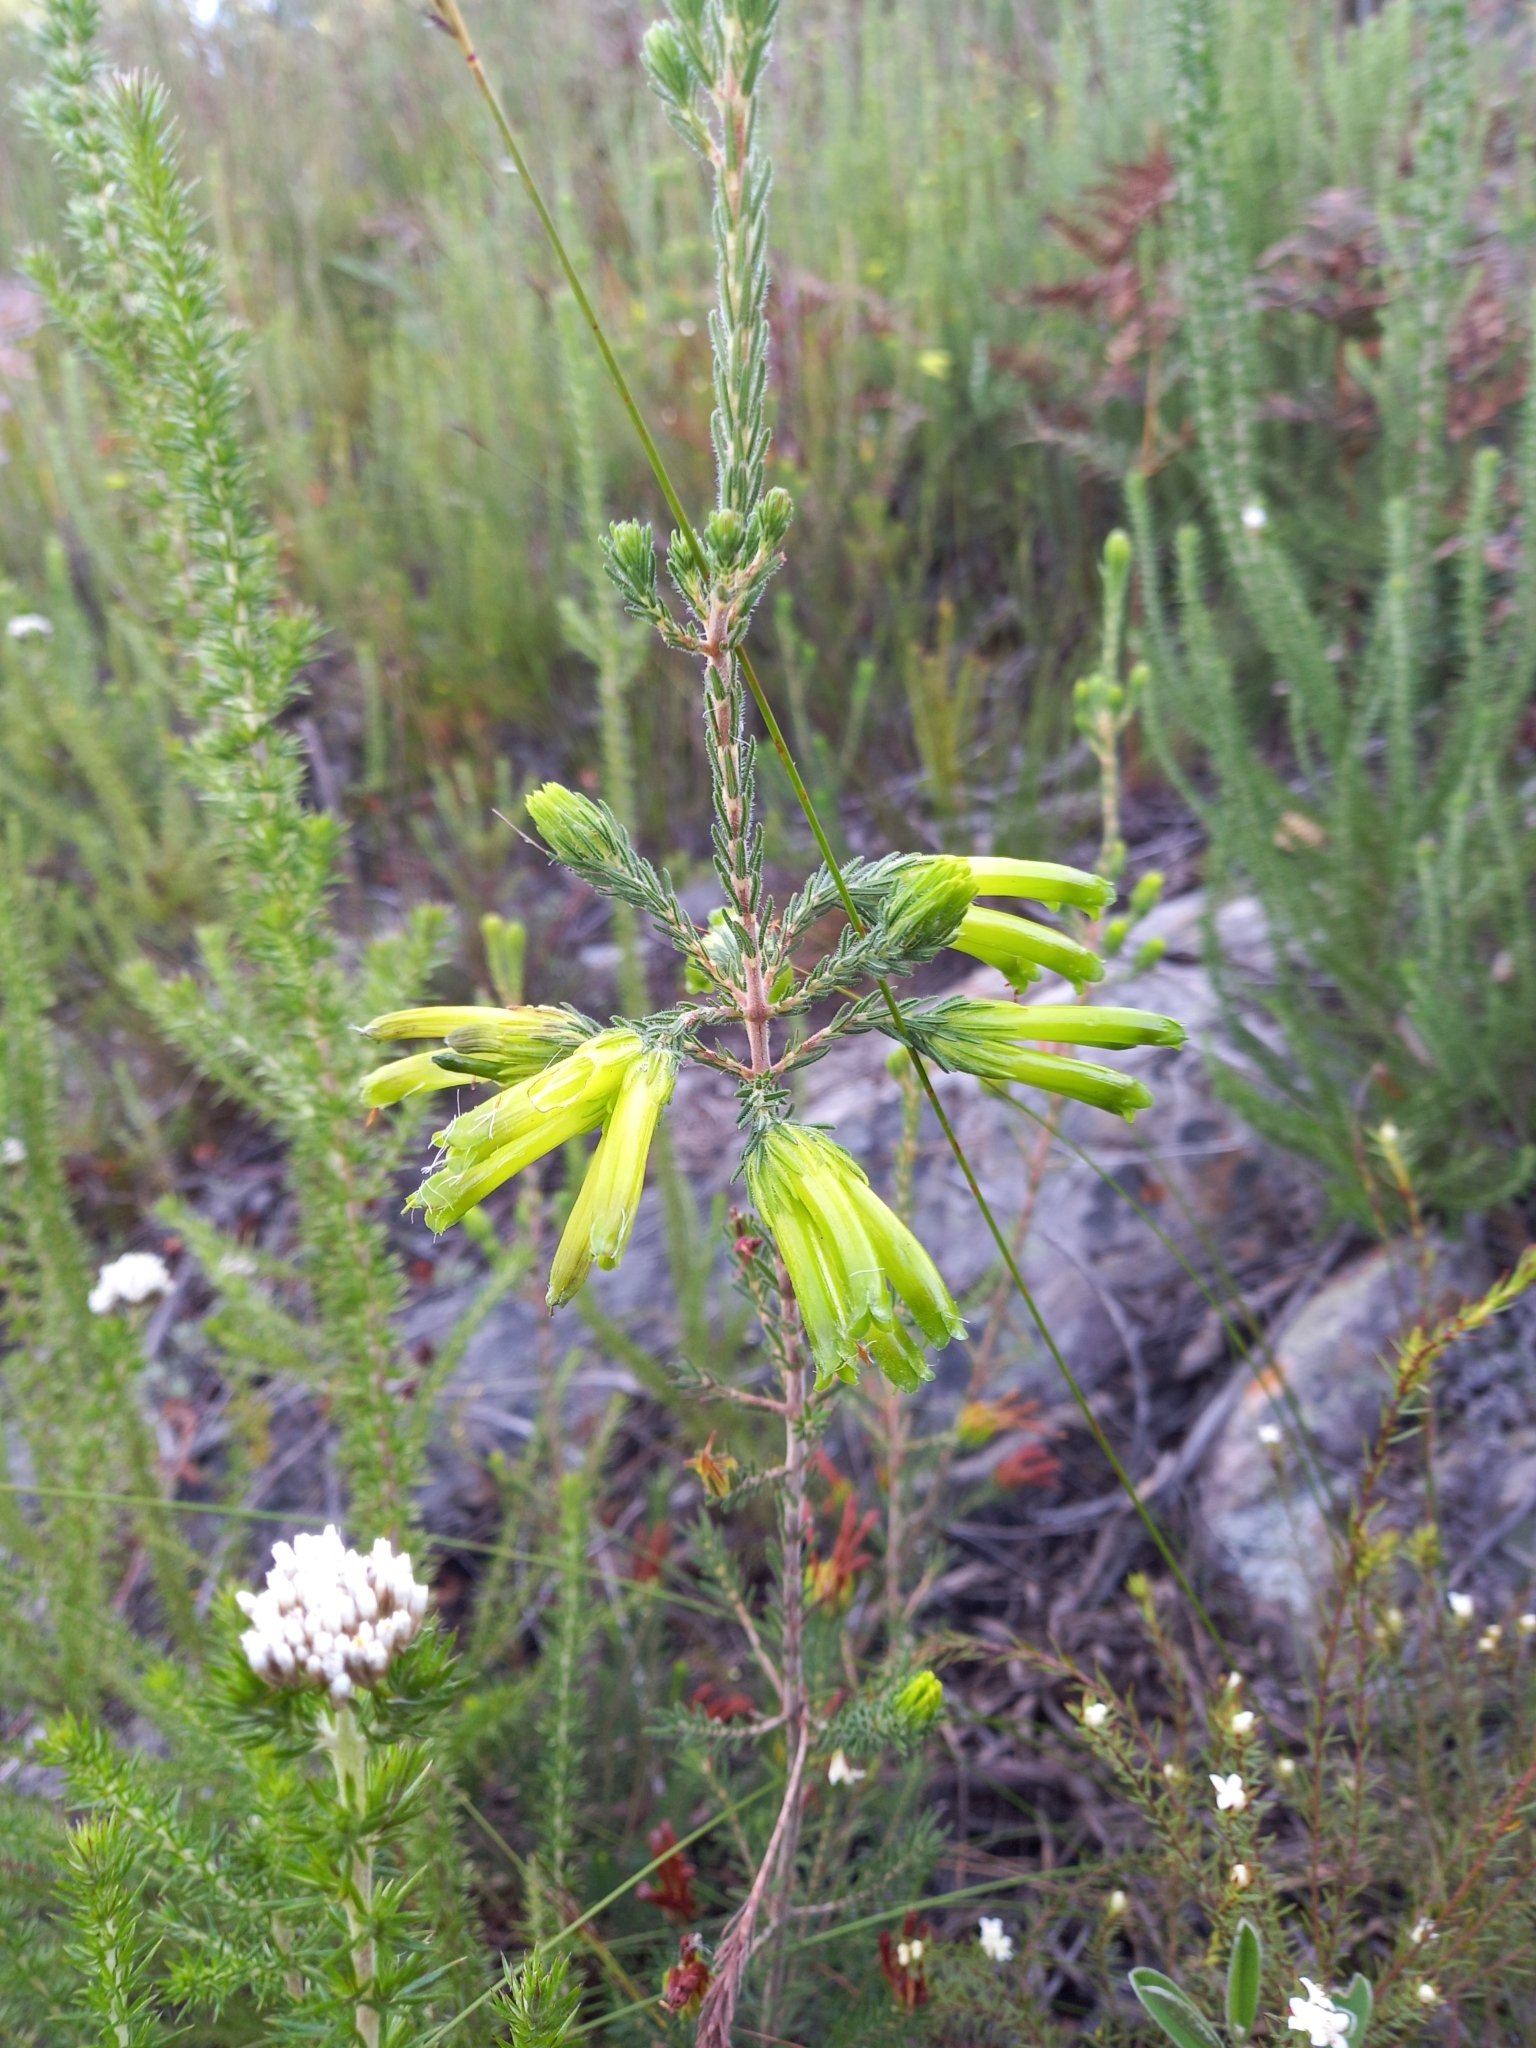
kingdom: Plantae
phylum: Tracheophyta
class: Magnoliopsida
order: Ericales
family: Ericaceae
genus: Erica
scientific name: Erica viridiflora
